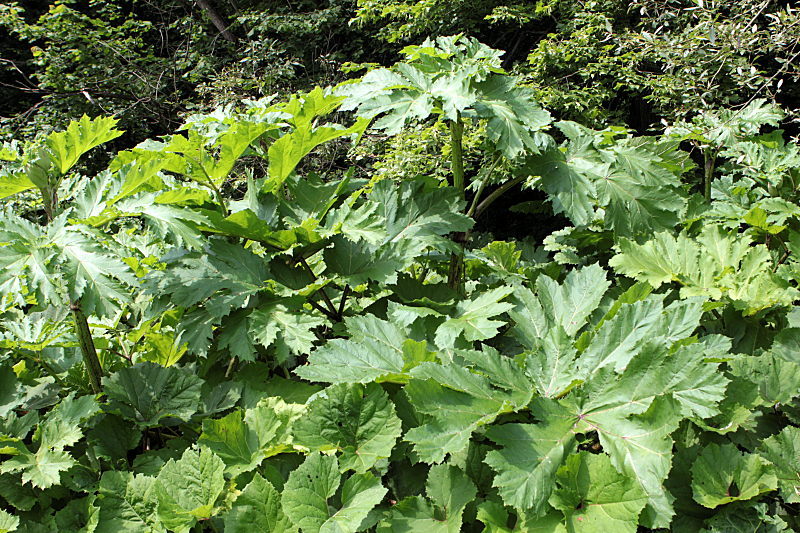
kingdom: Plantae
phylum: Tracheophyta
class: Magnoliopsida
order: Apiales
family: Apiaceae
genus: Heracleum
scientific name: Heracleum sosnowskyi
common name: Sosnowsky's hogweed
